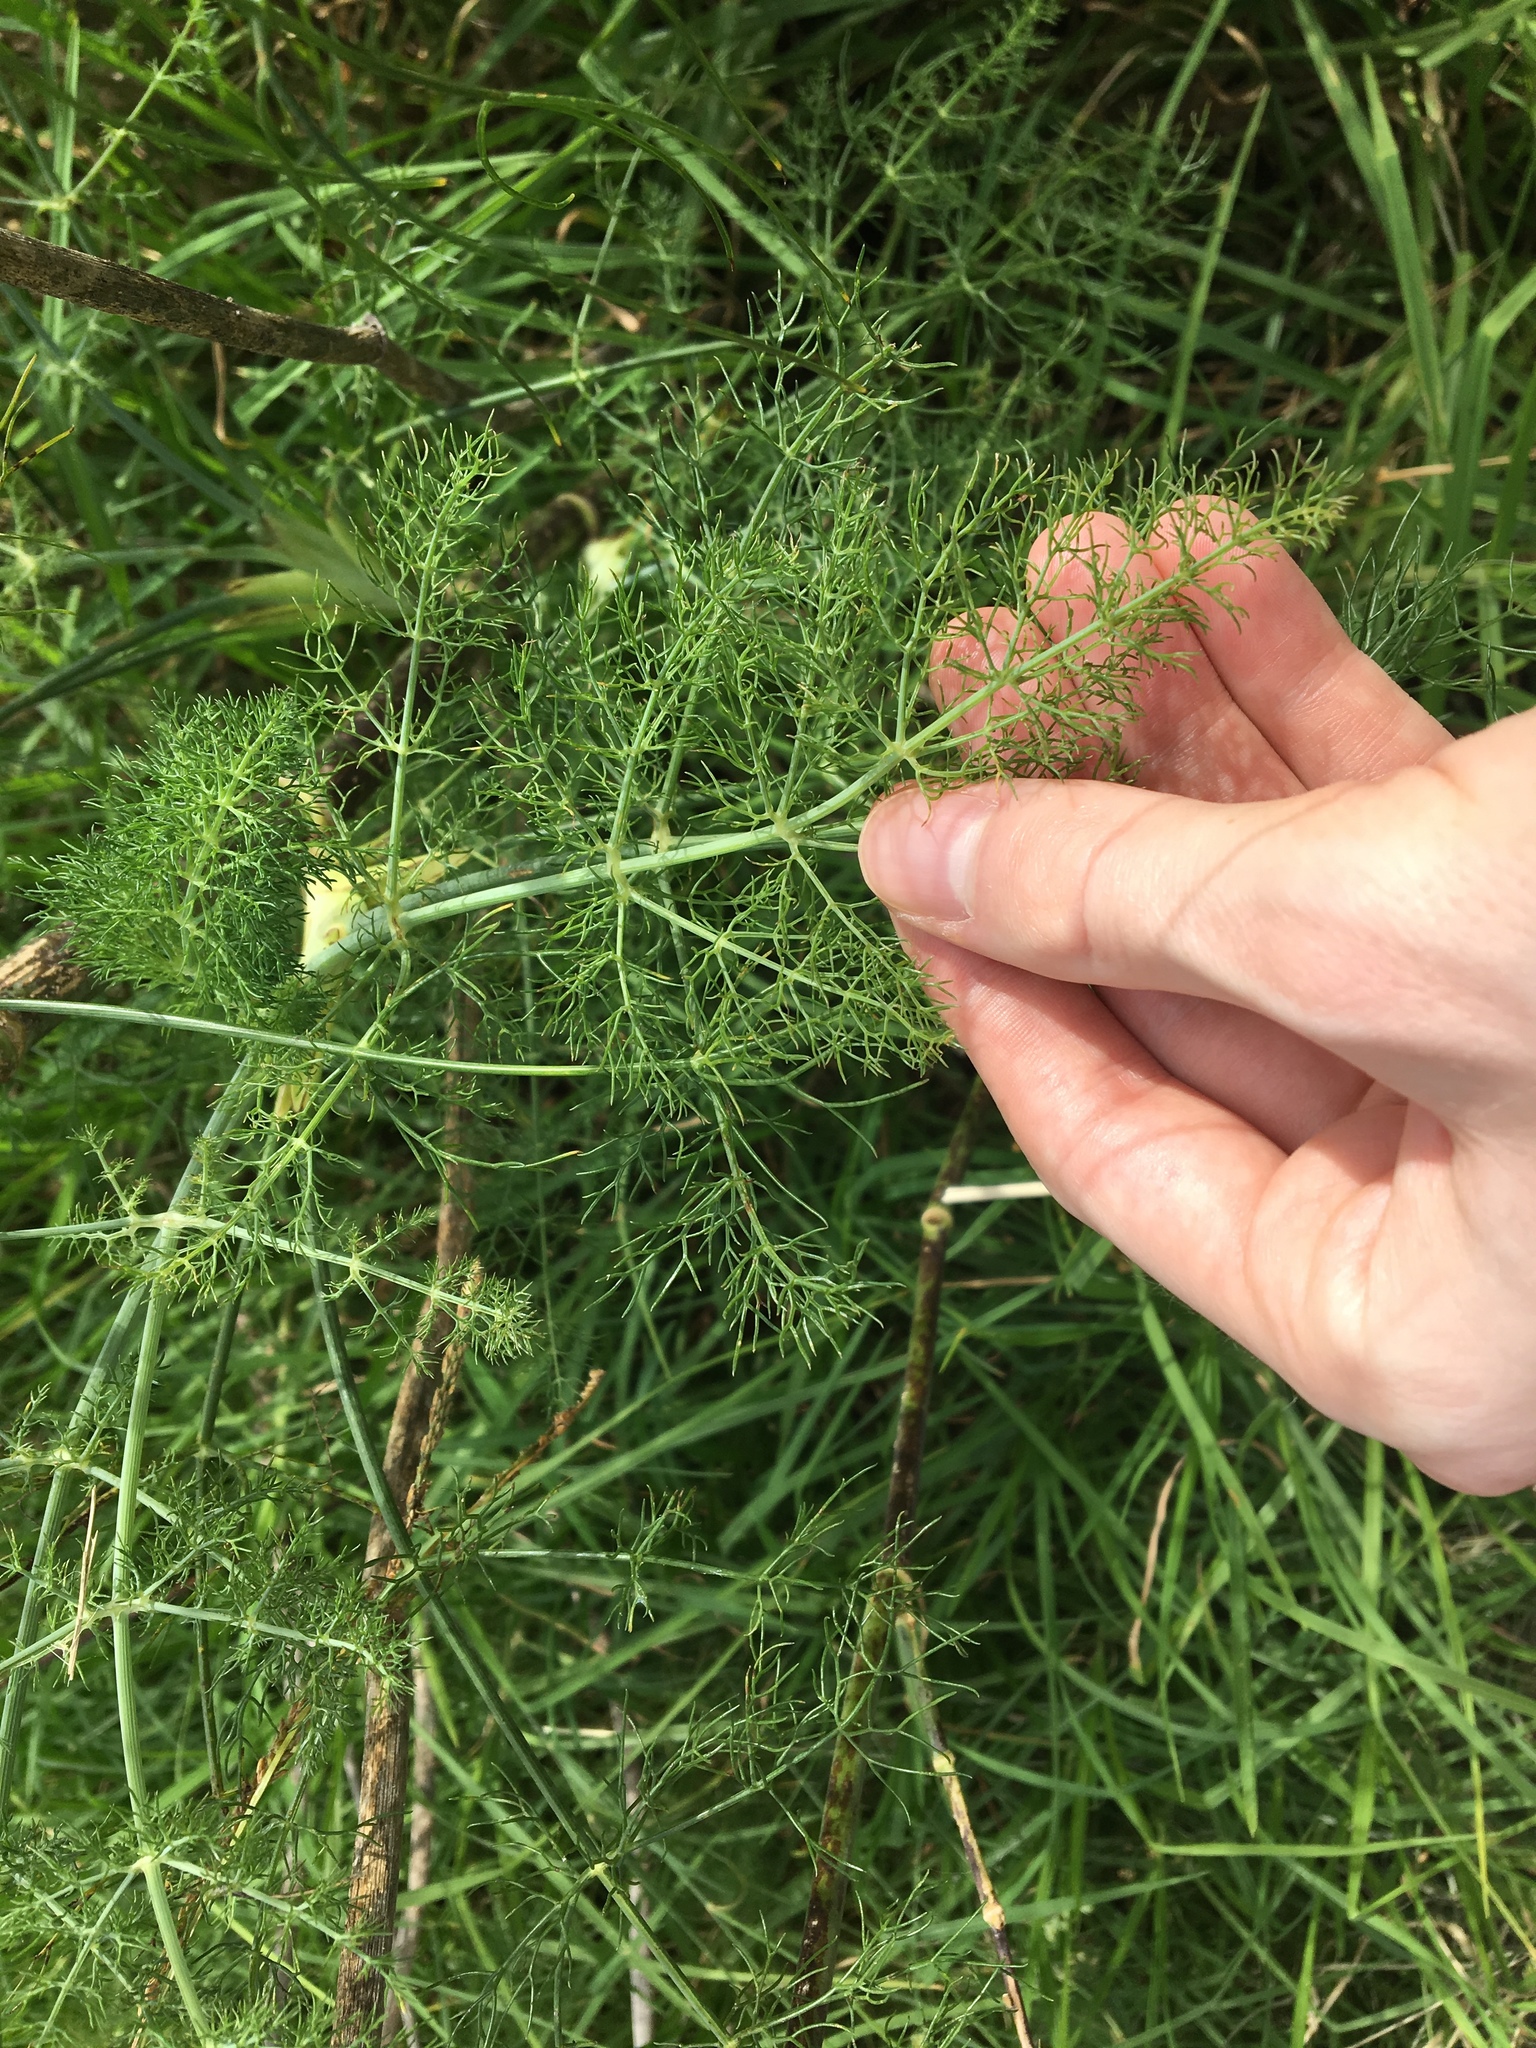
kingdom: Plantae
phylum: Tracheophyta
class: Magnoliopsida
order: Apiales
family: Apiaceae
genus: Foeniculum
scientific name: Foeniculum vulgare
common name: Fennel
